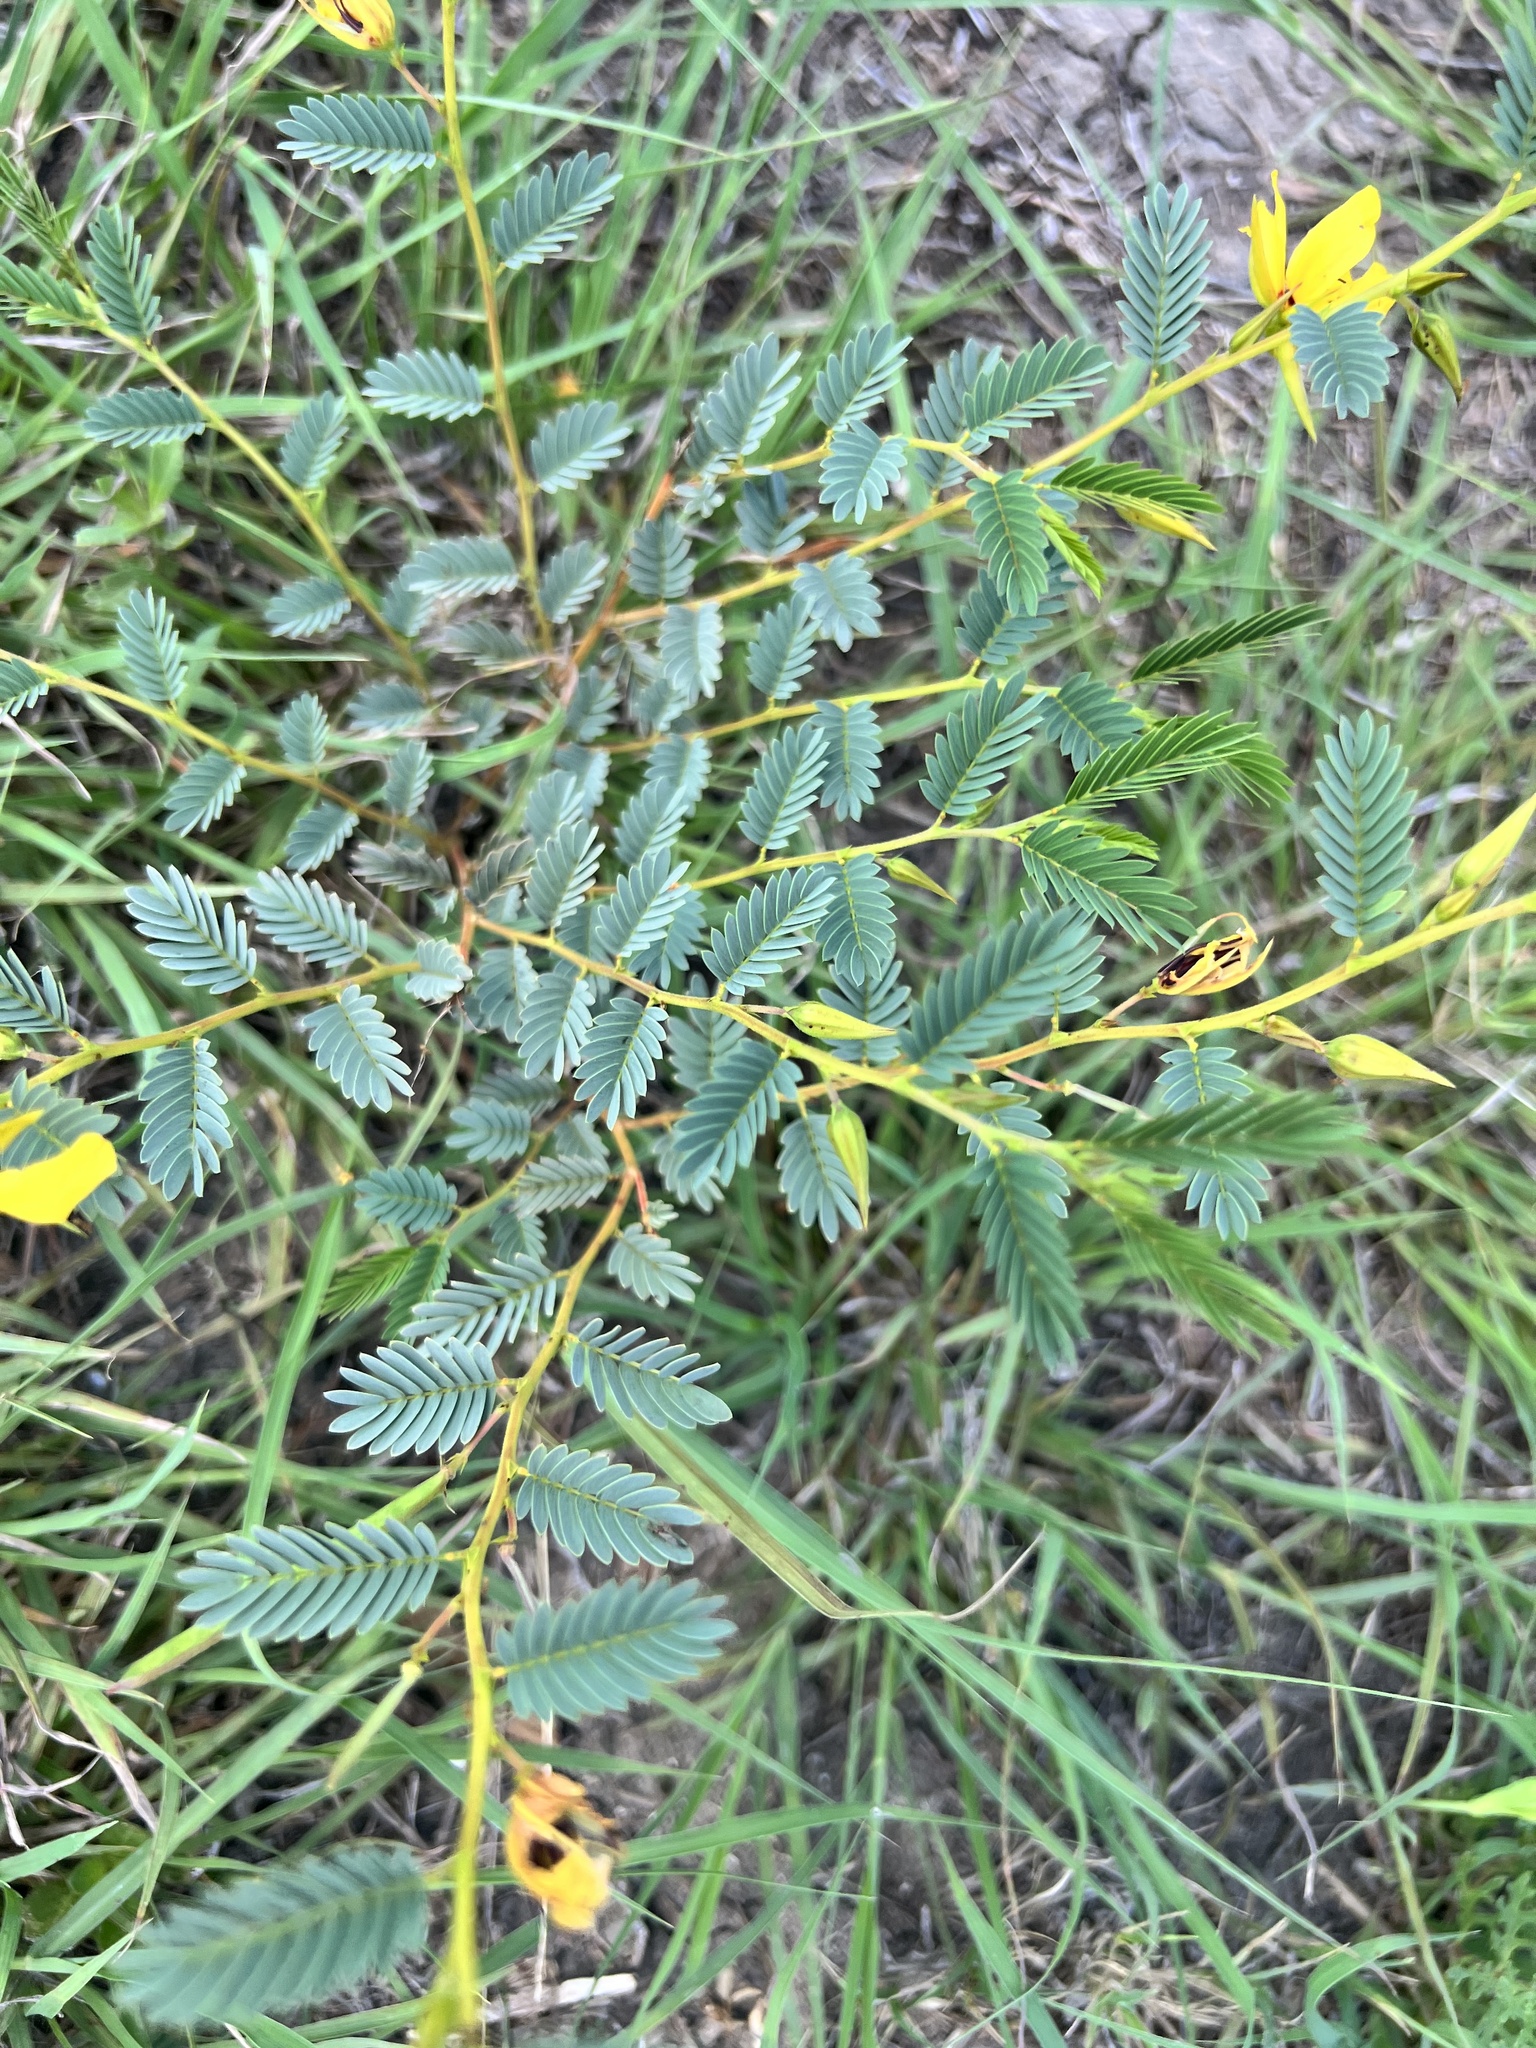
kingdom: Plantae
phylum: Tracheophyta
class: Magnoliopsida
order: Fabales
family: Fabaceae
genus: Chamaecrista
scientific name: Chamaecrista fasciculata
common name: Golden cassia
